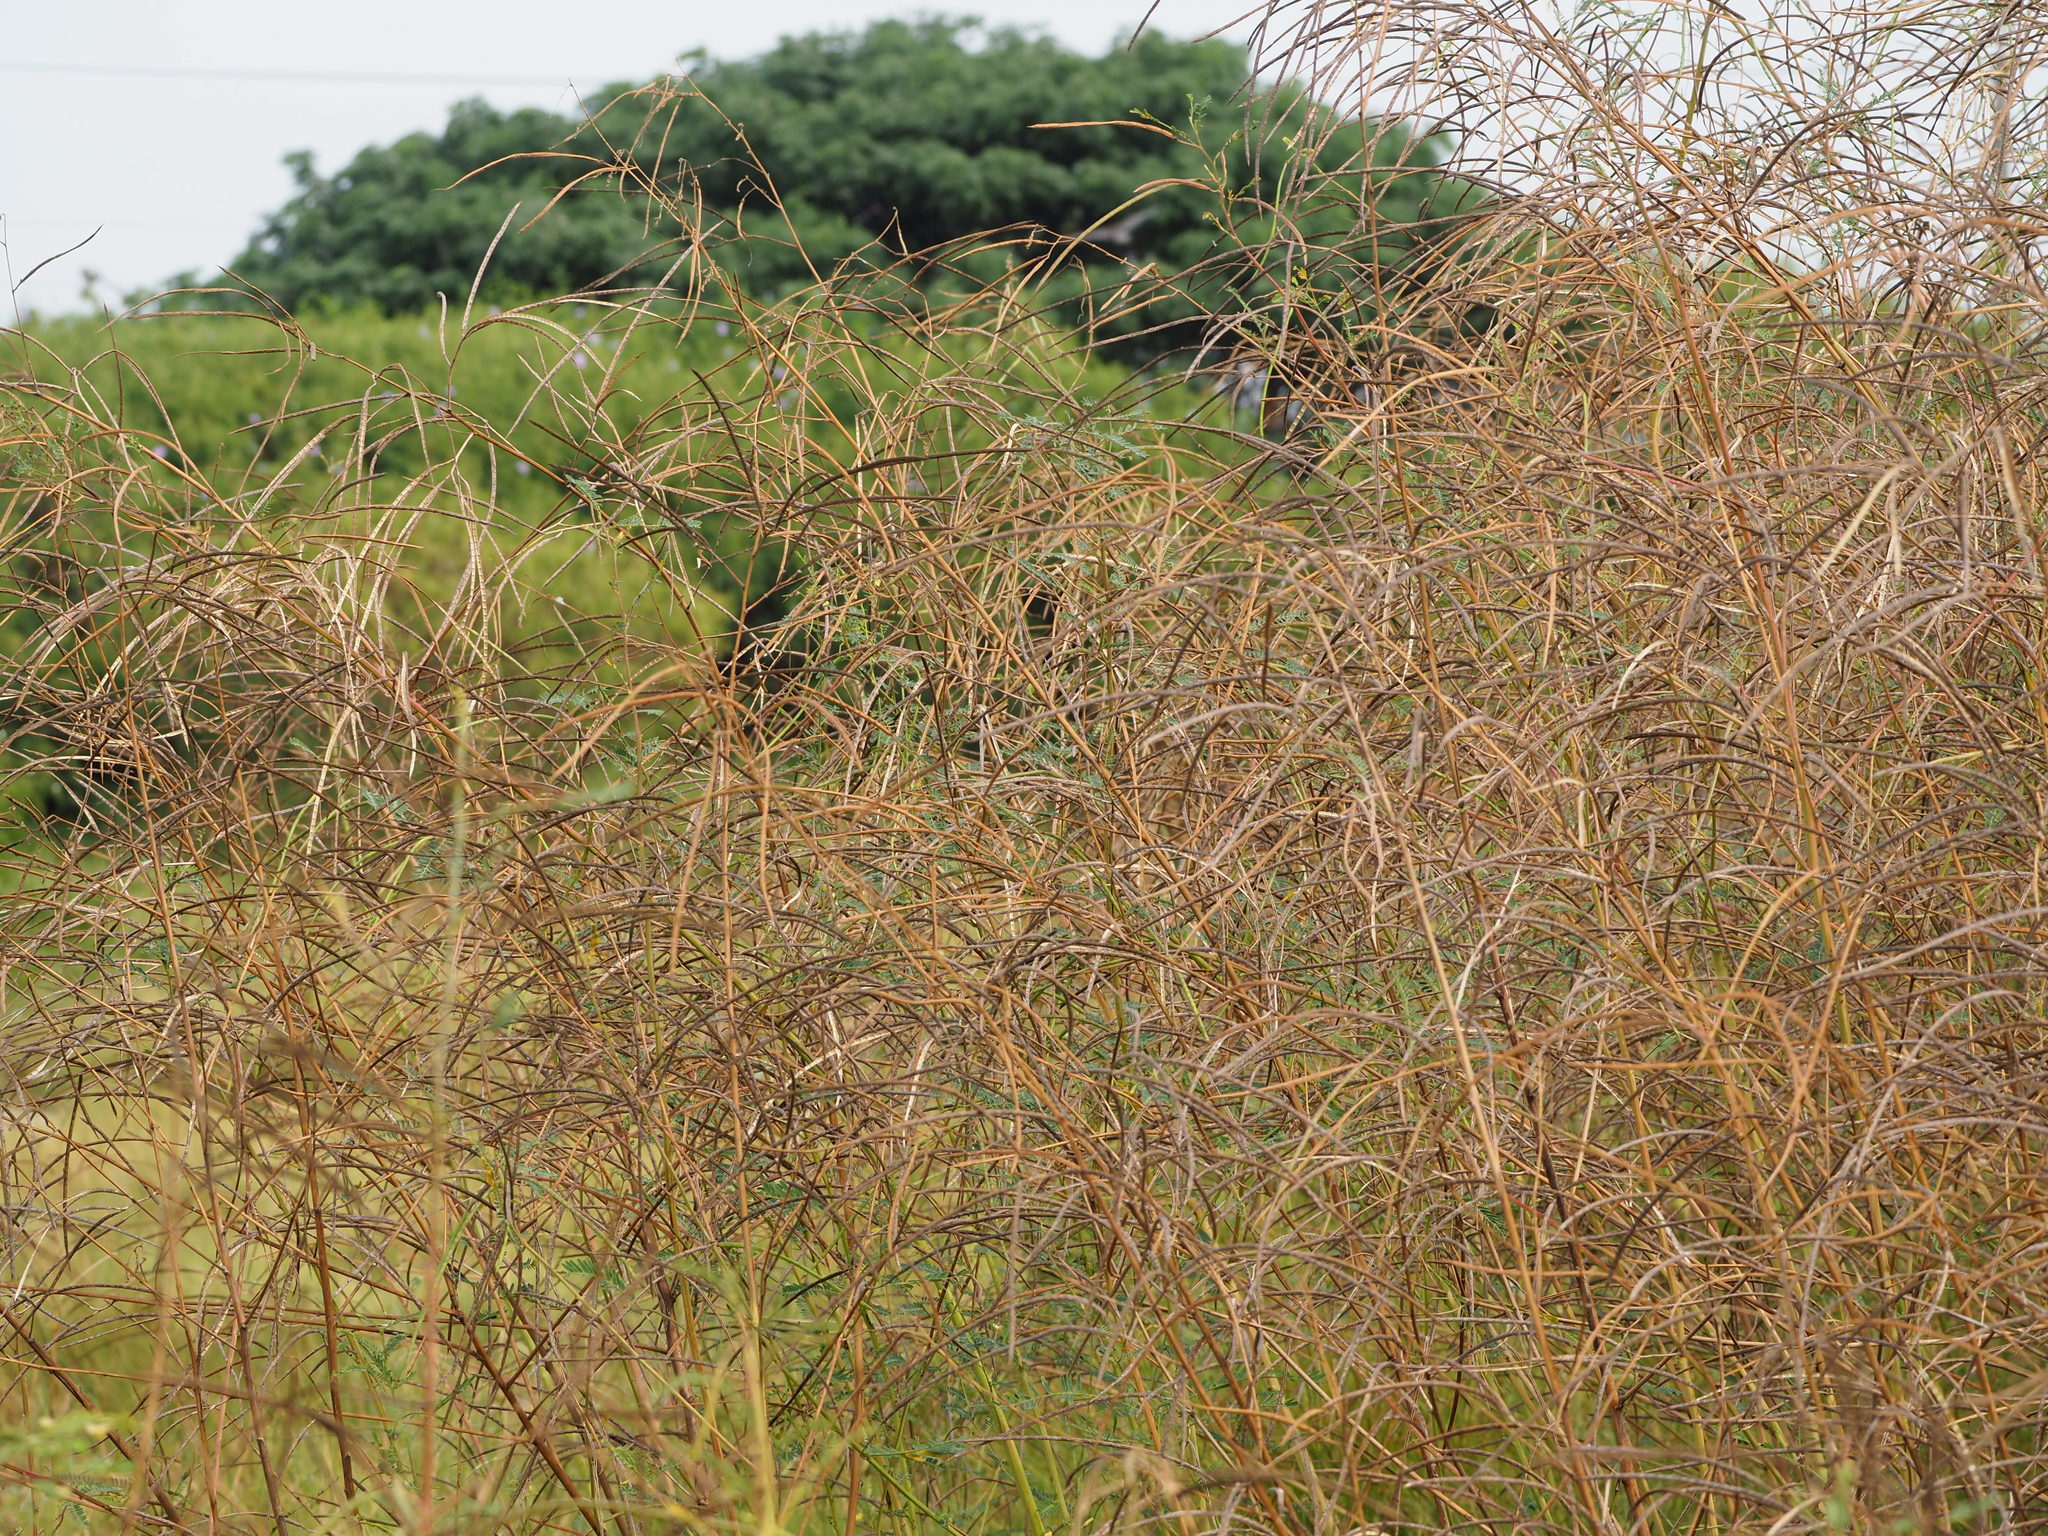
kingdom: Plantae
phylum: Tracheophyta
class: Magnoliopsida
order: Fabales
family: Fabaceae
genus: Sesbania
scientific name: Sesbania cannabina
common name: Canicha
